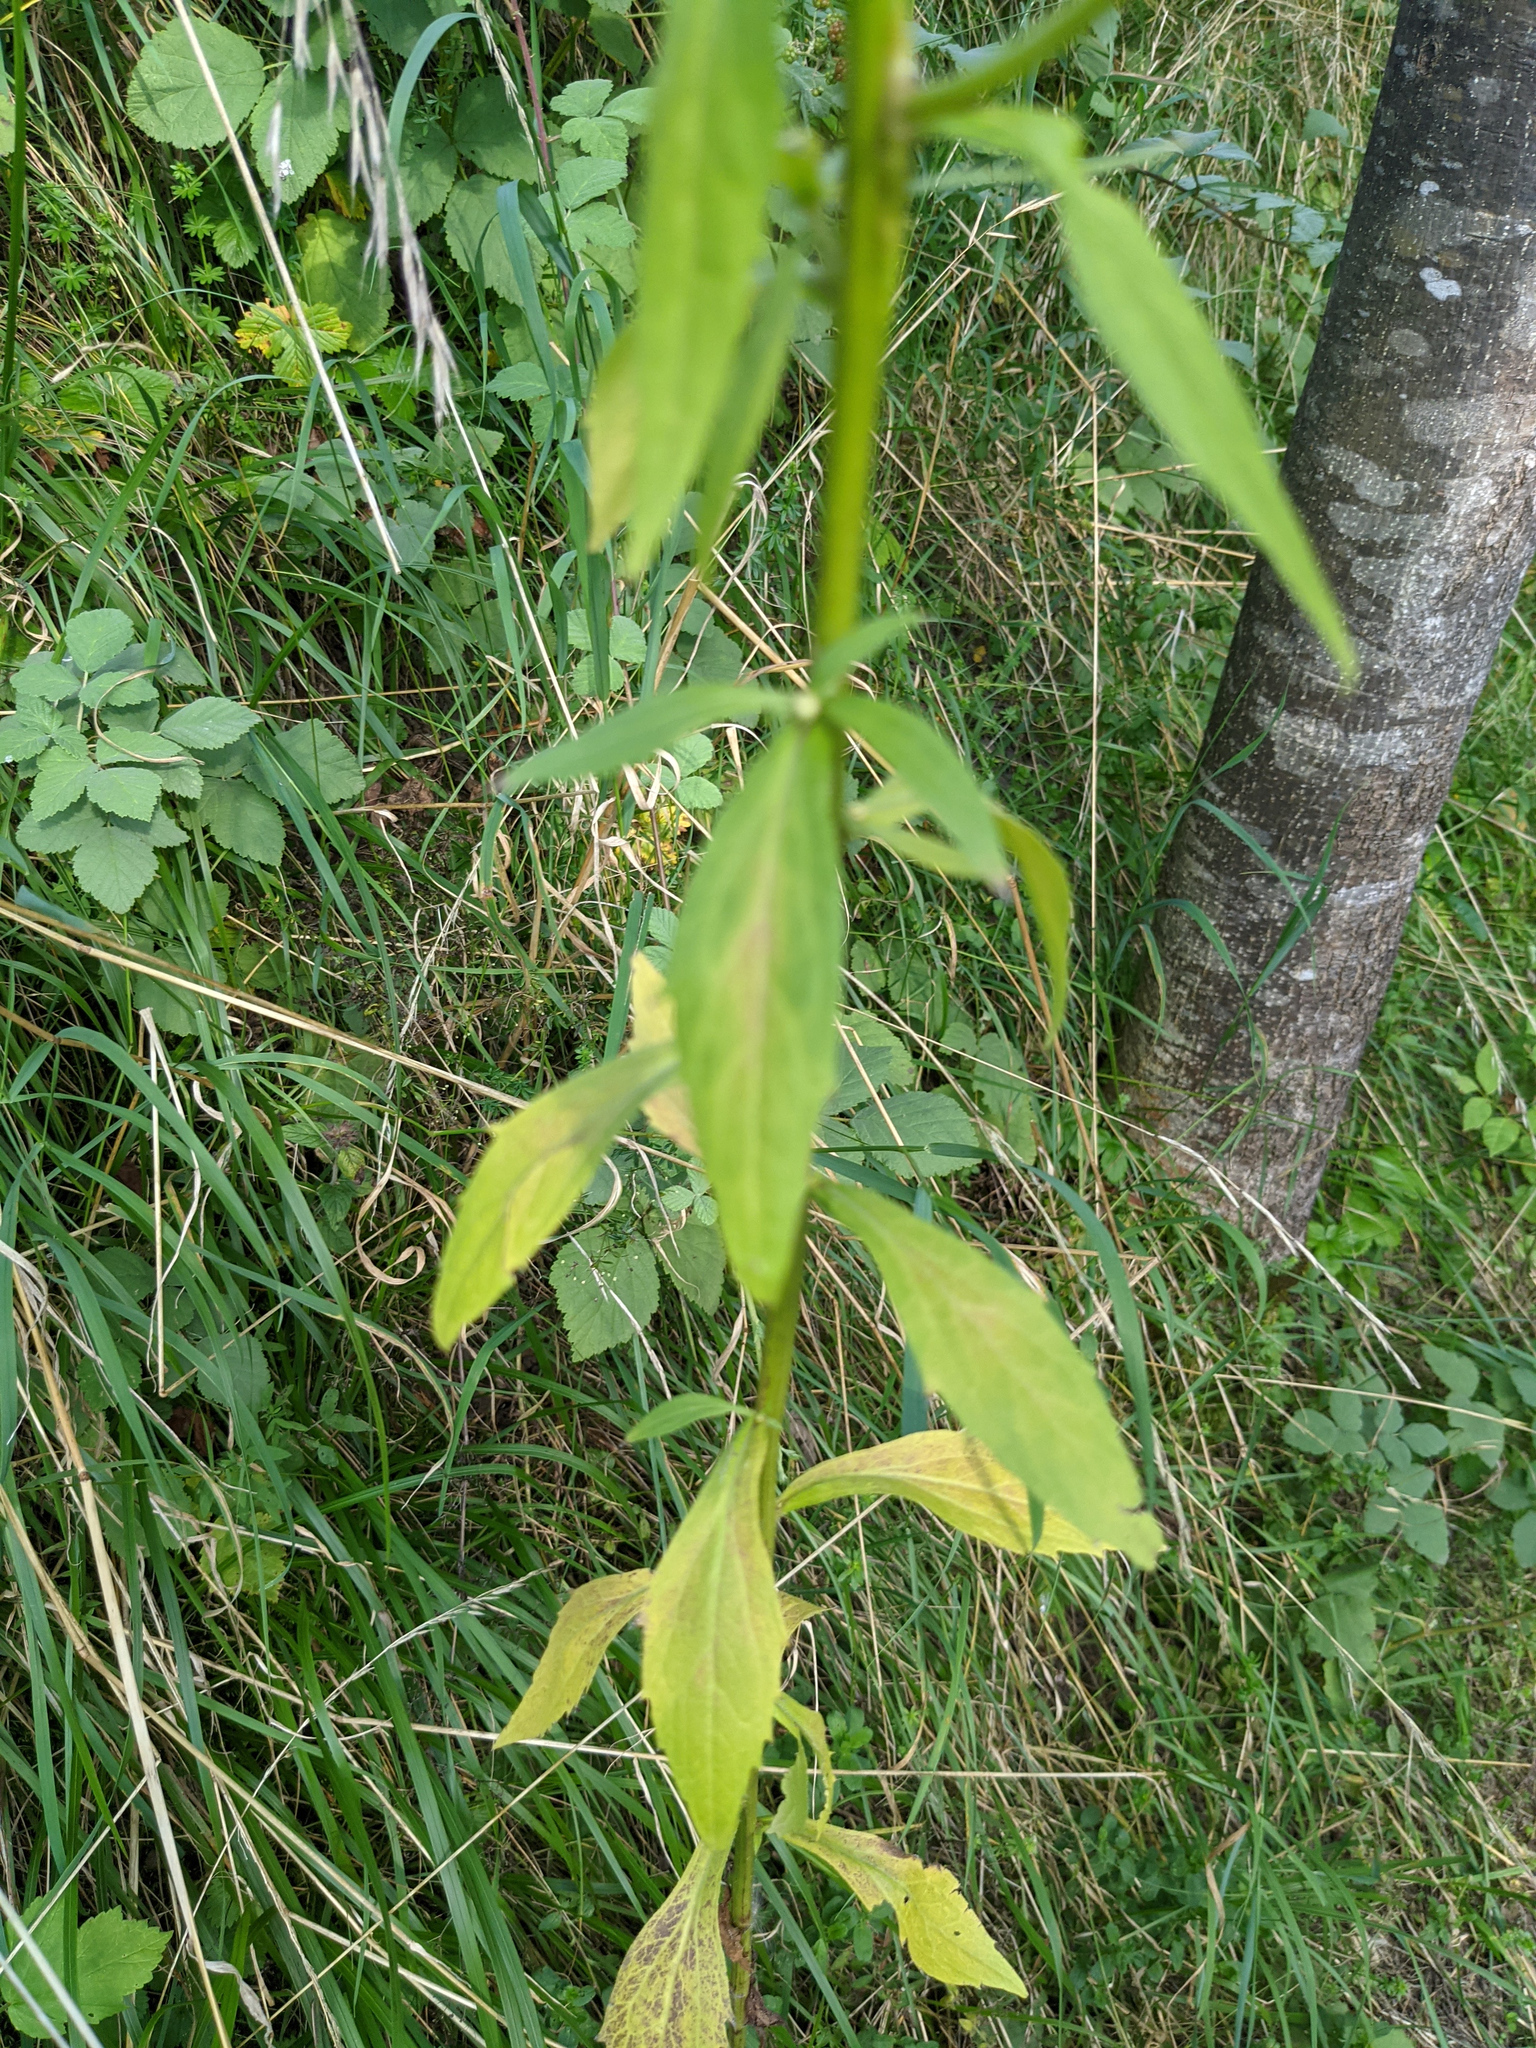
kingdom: Plantae
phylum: Tracheophyta
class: Magnoliopsida
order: Asterales
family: Asteraceae
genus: Erigeron
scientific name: Erigeron annuus
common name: Tall fleabane
